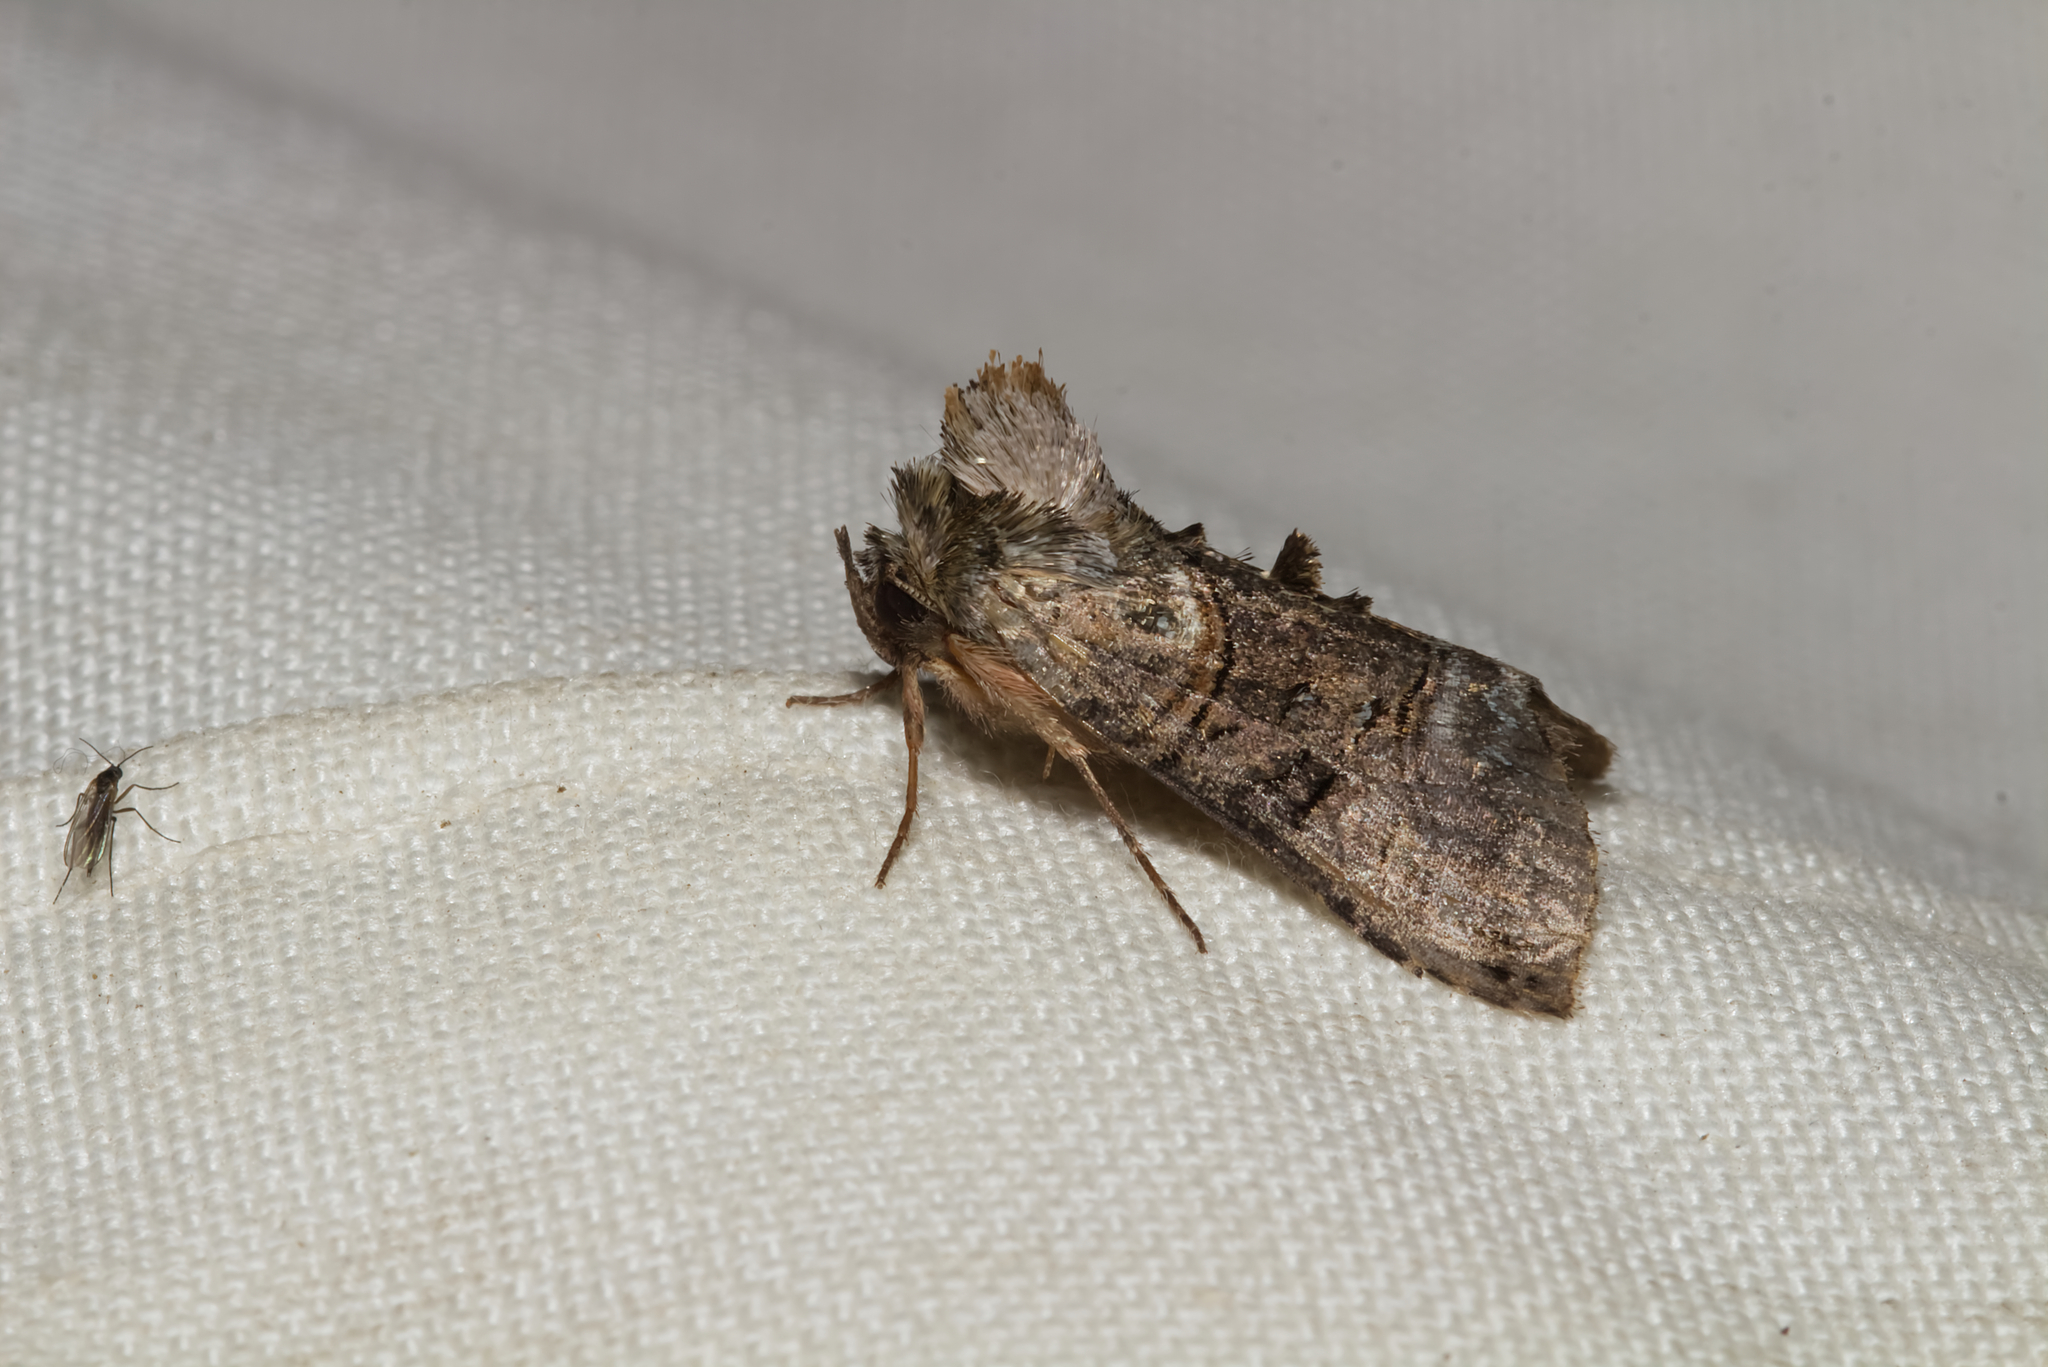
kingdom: Animalia
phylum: Arthropoda
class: Insecta
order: Lepidoptera
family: Noctuidae
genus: Abrostola
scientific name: Abrostola tripartita
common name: Spectacle
